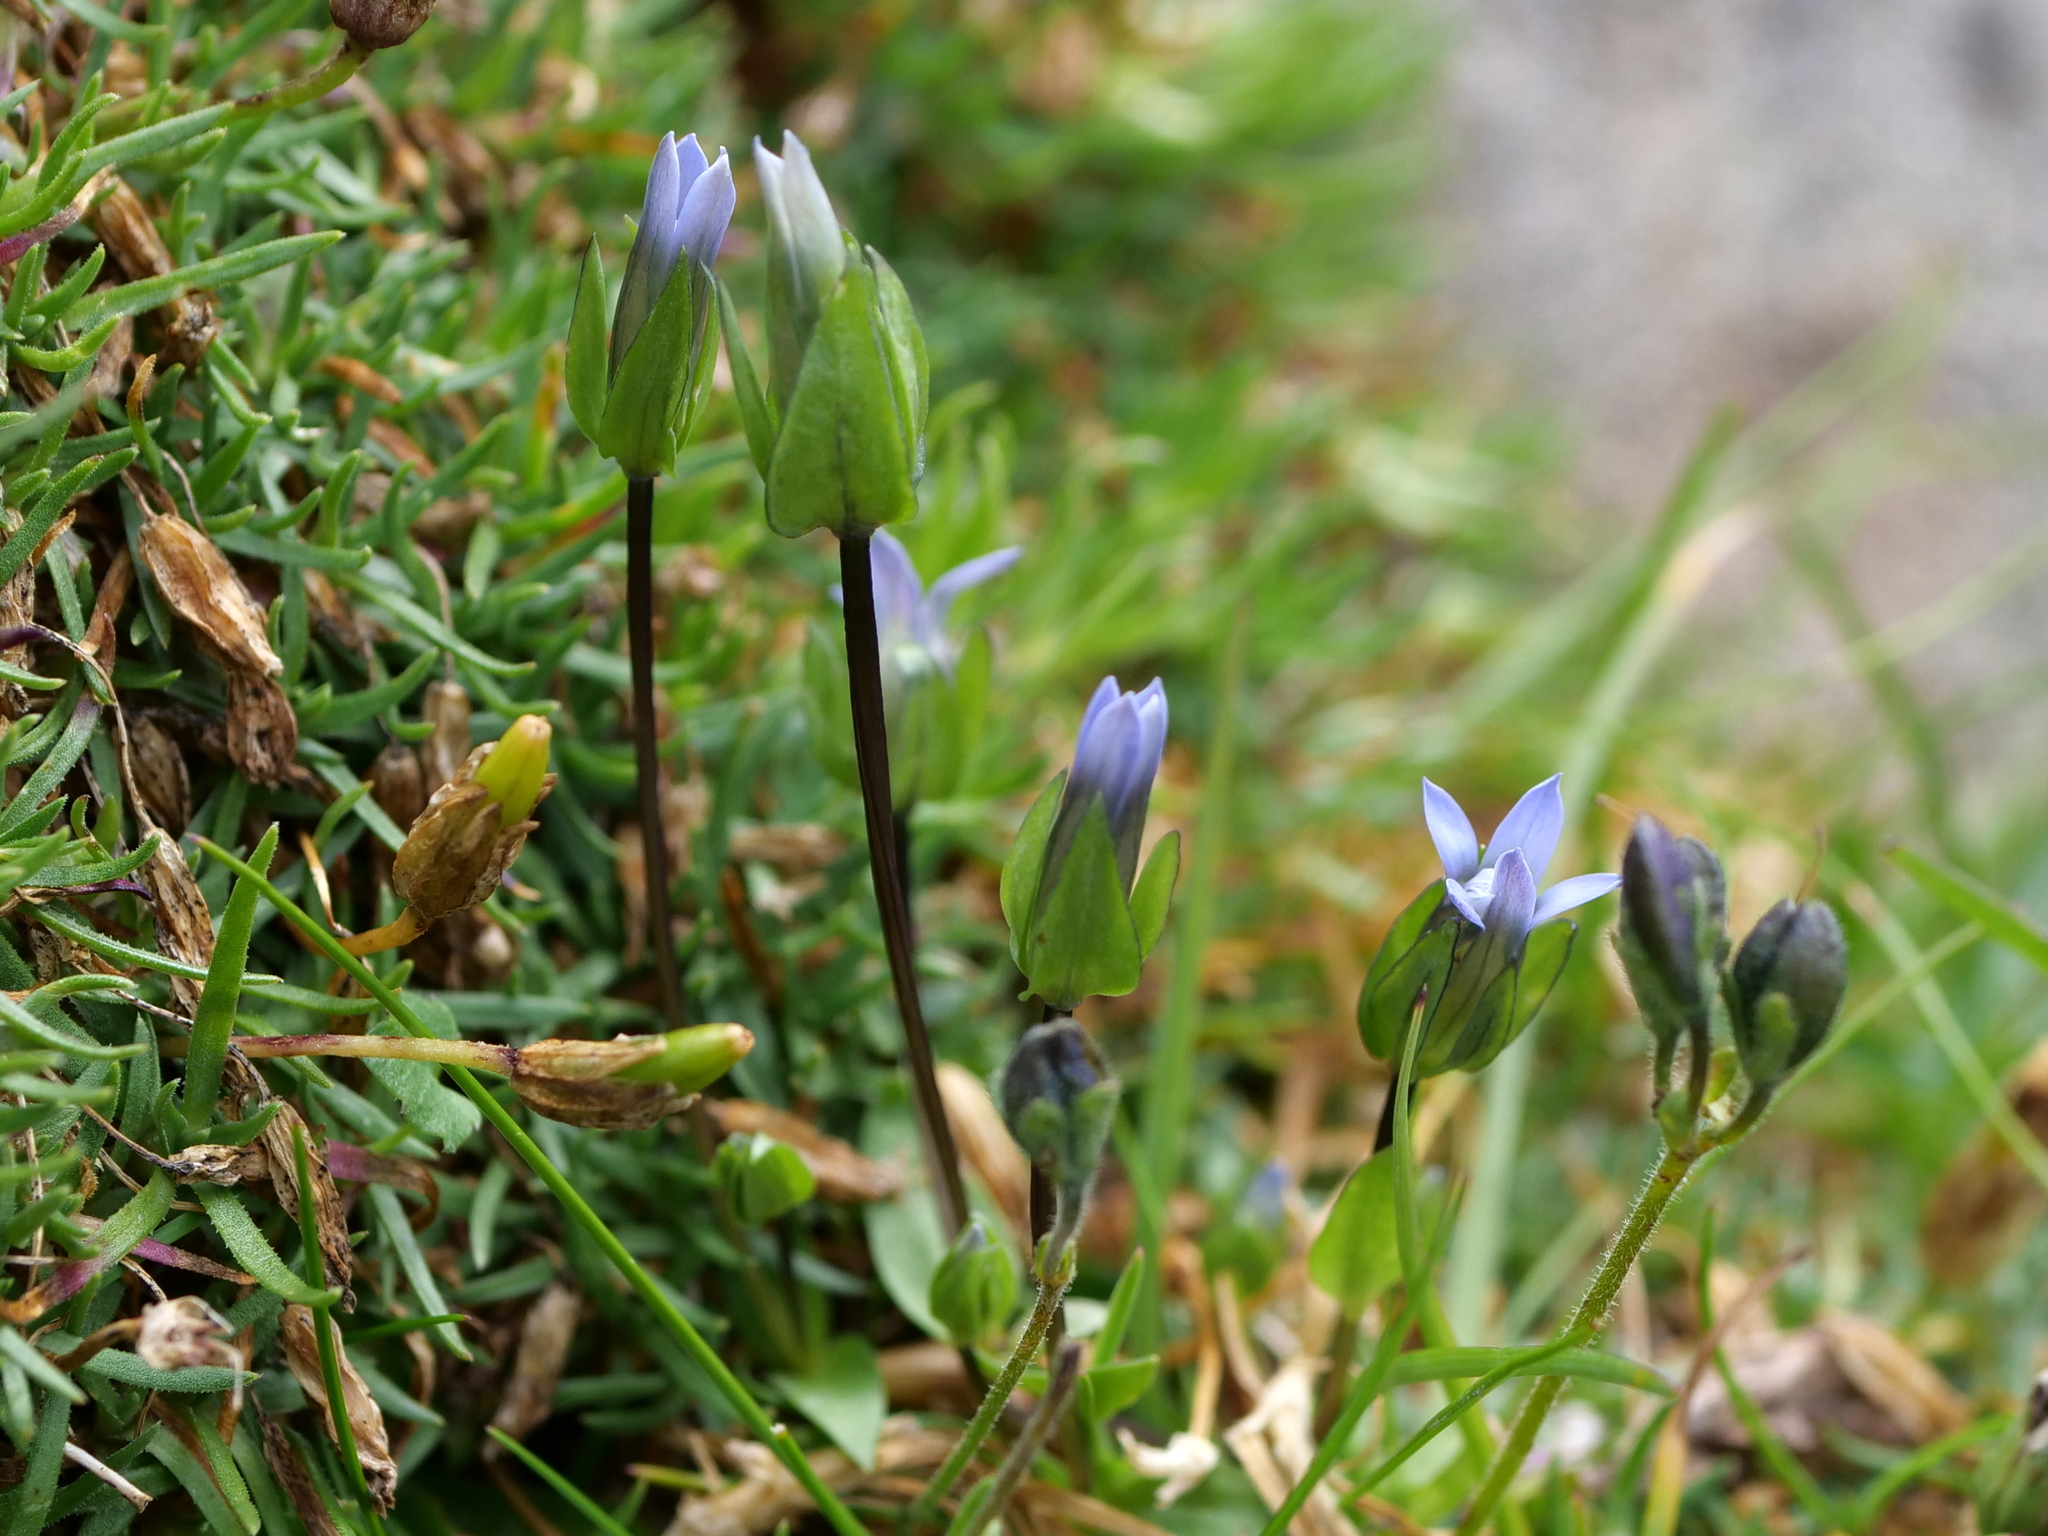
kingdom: Plantae
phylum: Tracheophyta
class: Magnoliopsida
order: Gentianales
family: Gentianaceae
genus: Comastoma
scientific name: Comastoma tenellum
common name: Dane's dwarf gentian
